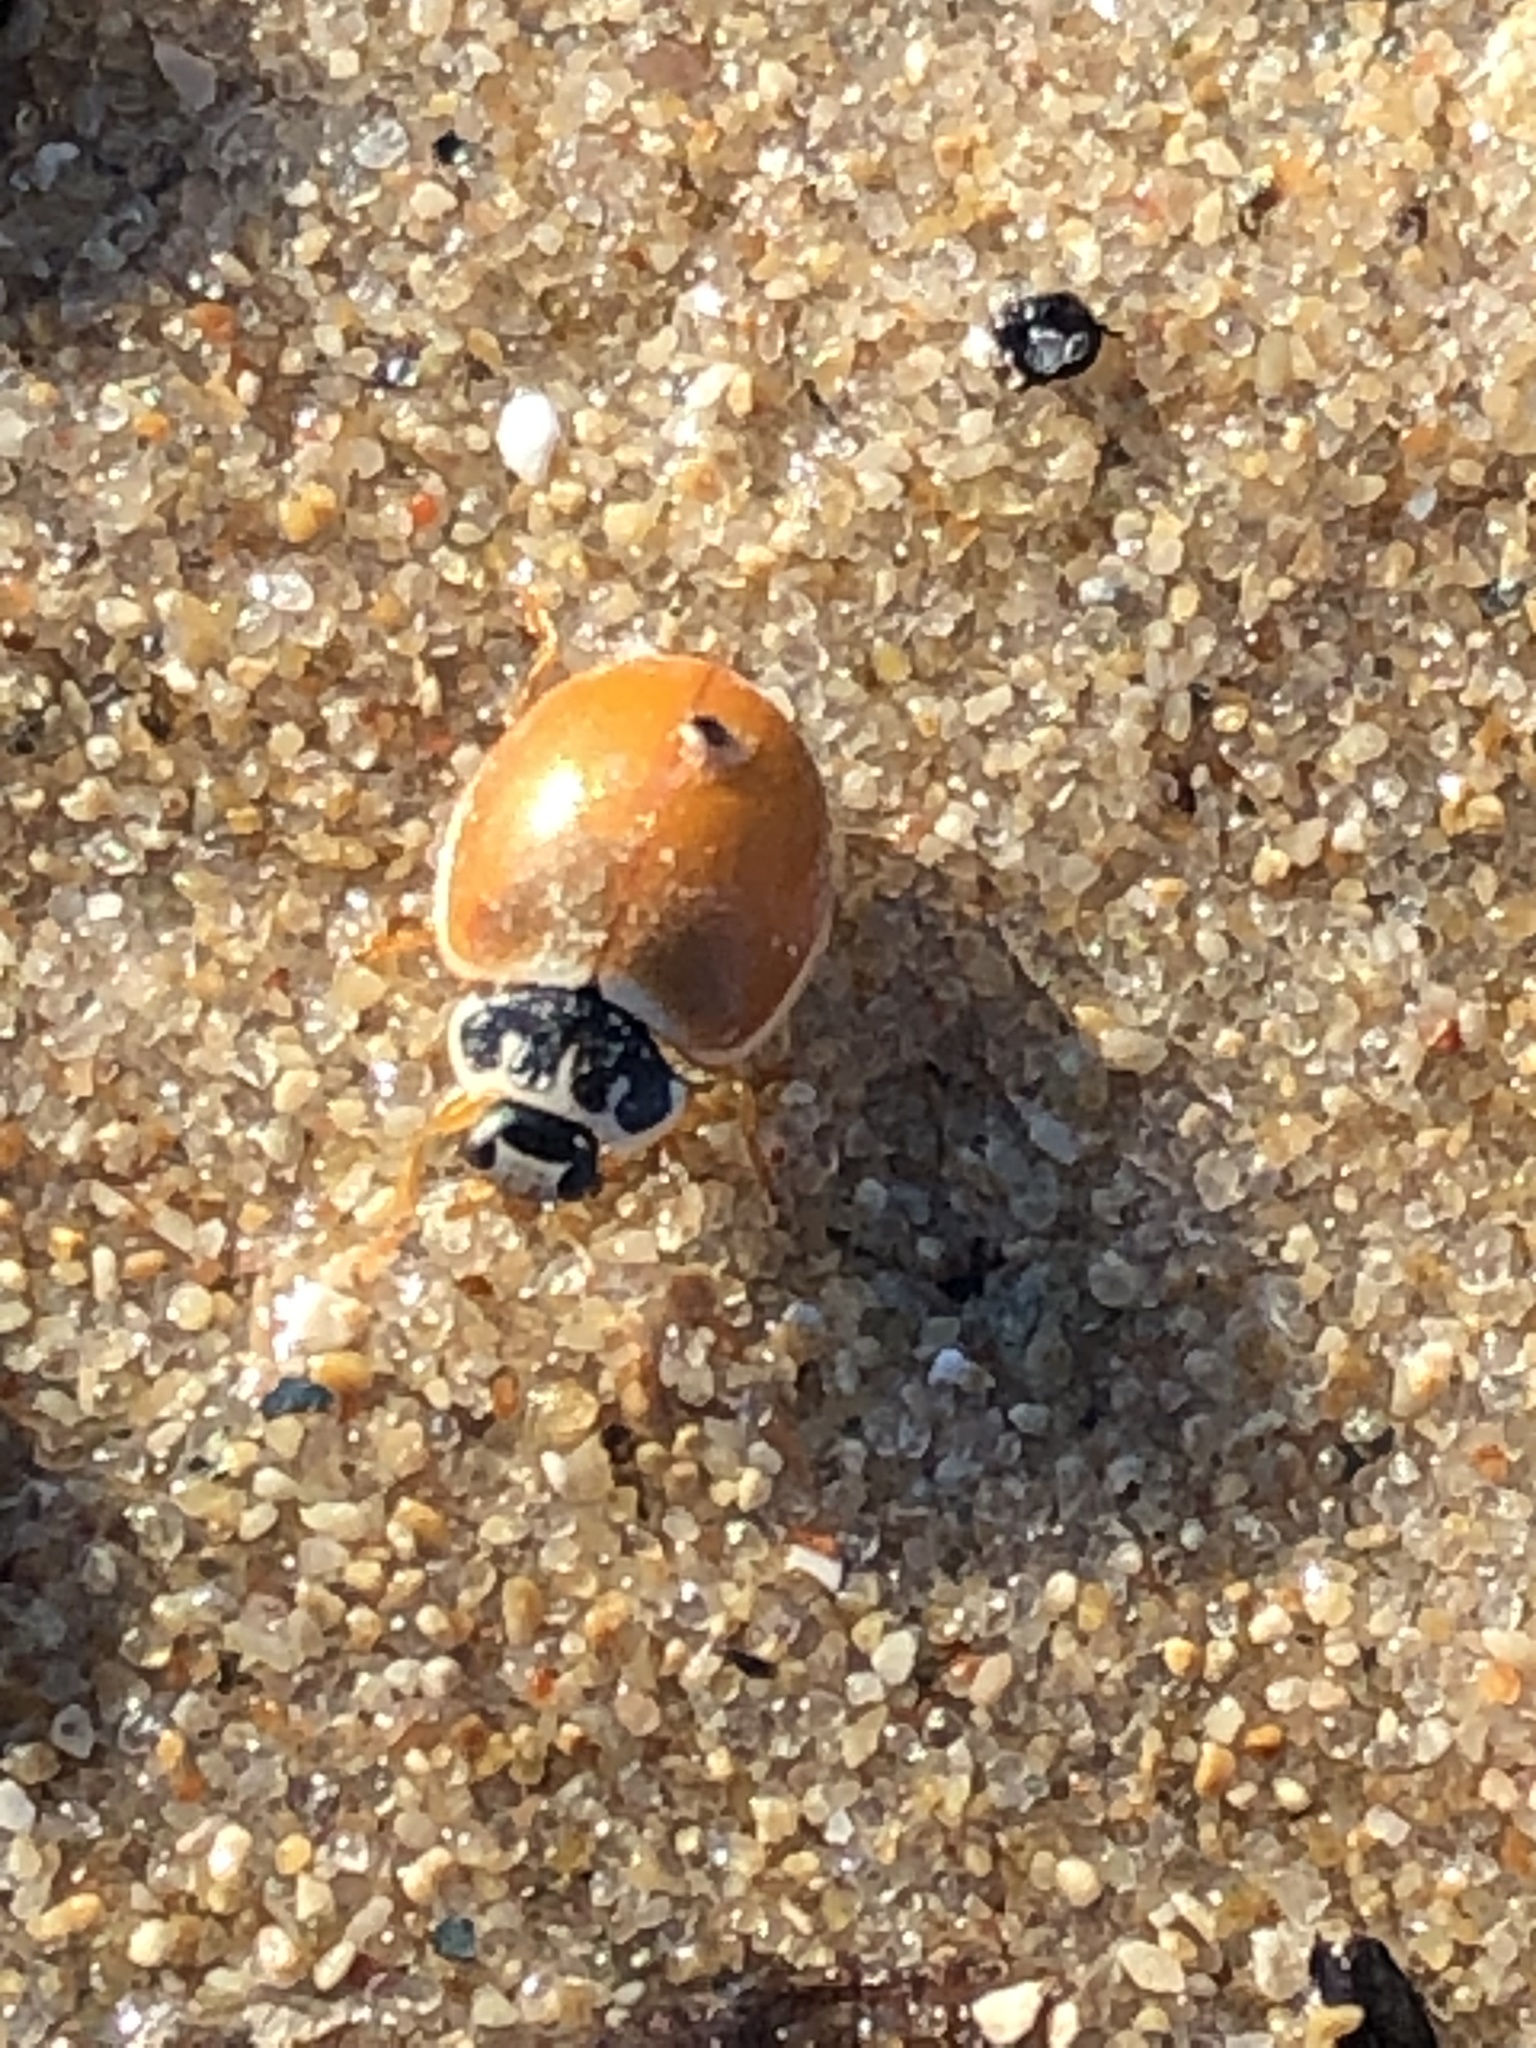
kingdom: Animalia
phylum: Arthropoda
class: Insecta
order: Coleoptera
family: Coccinellidae
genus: Cycloneda
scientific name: Cycloneda munda
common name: Polished lady beetle
